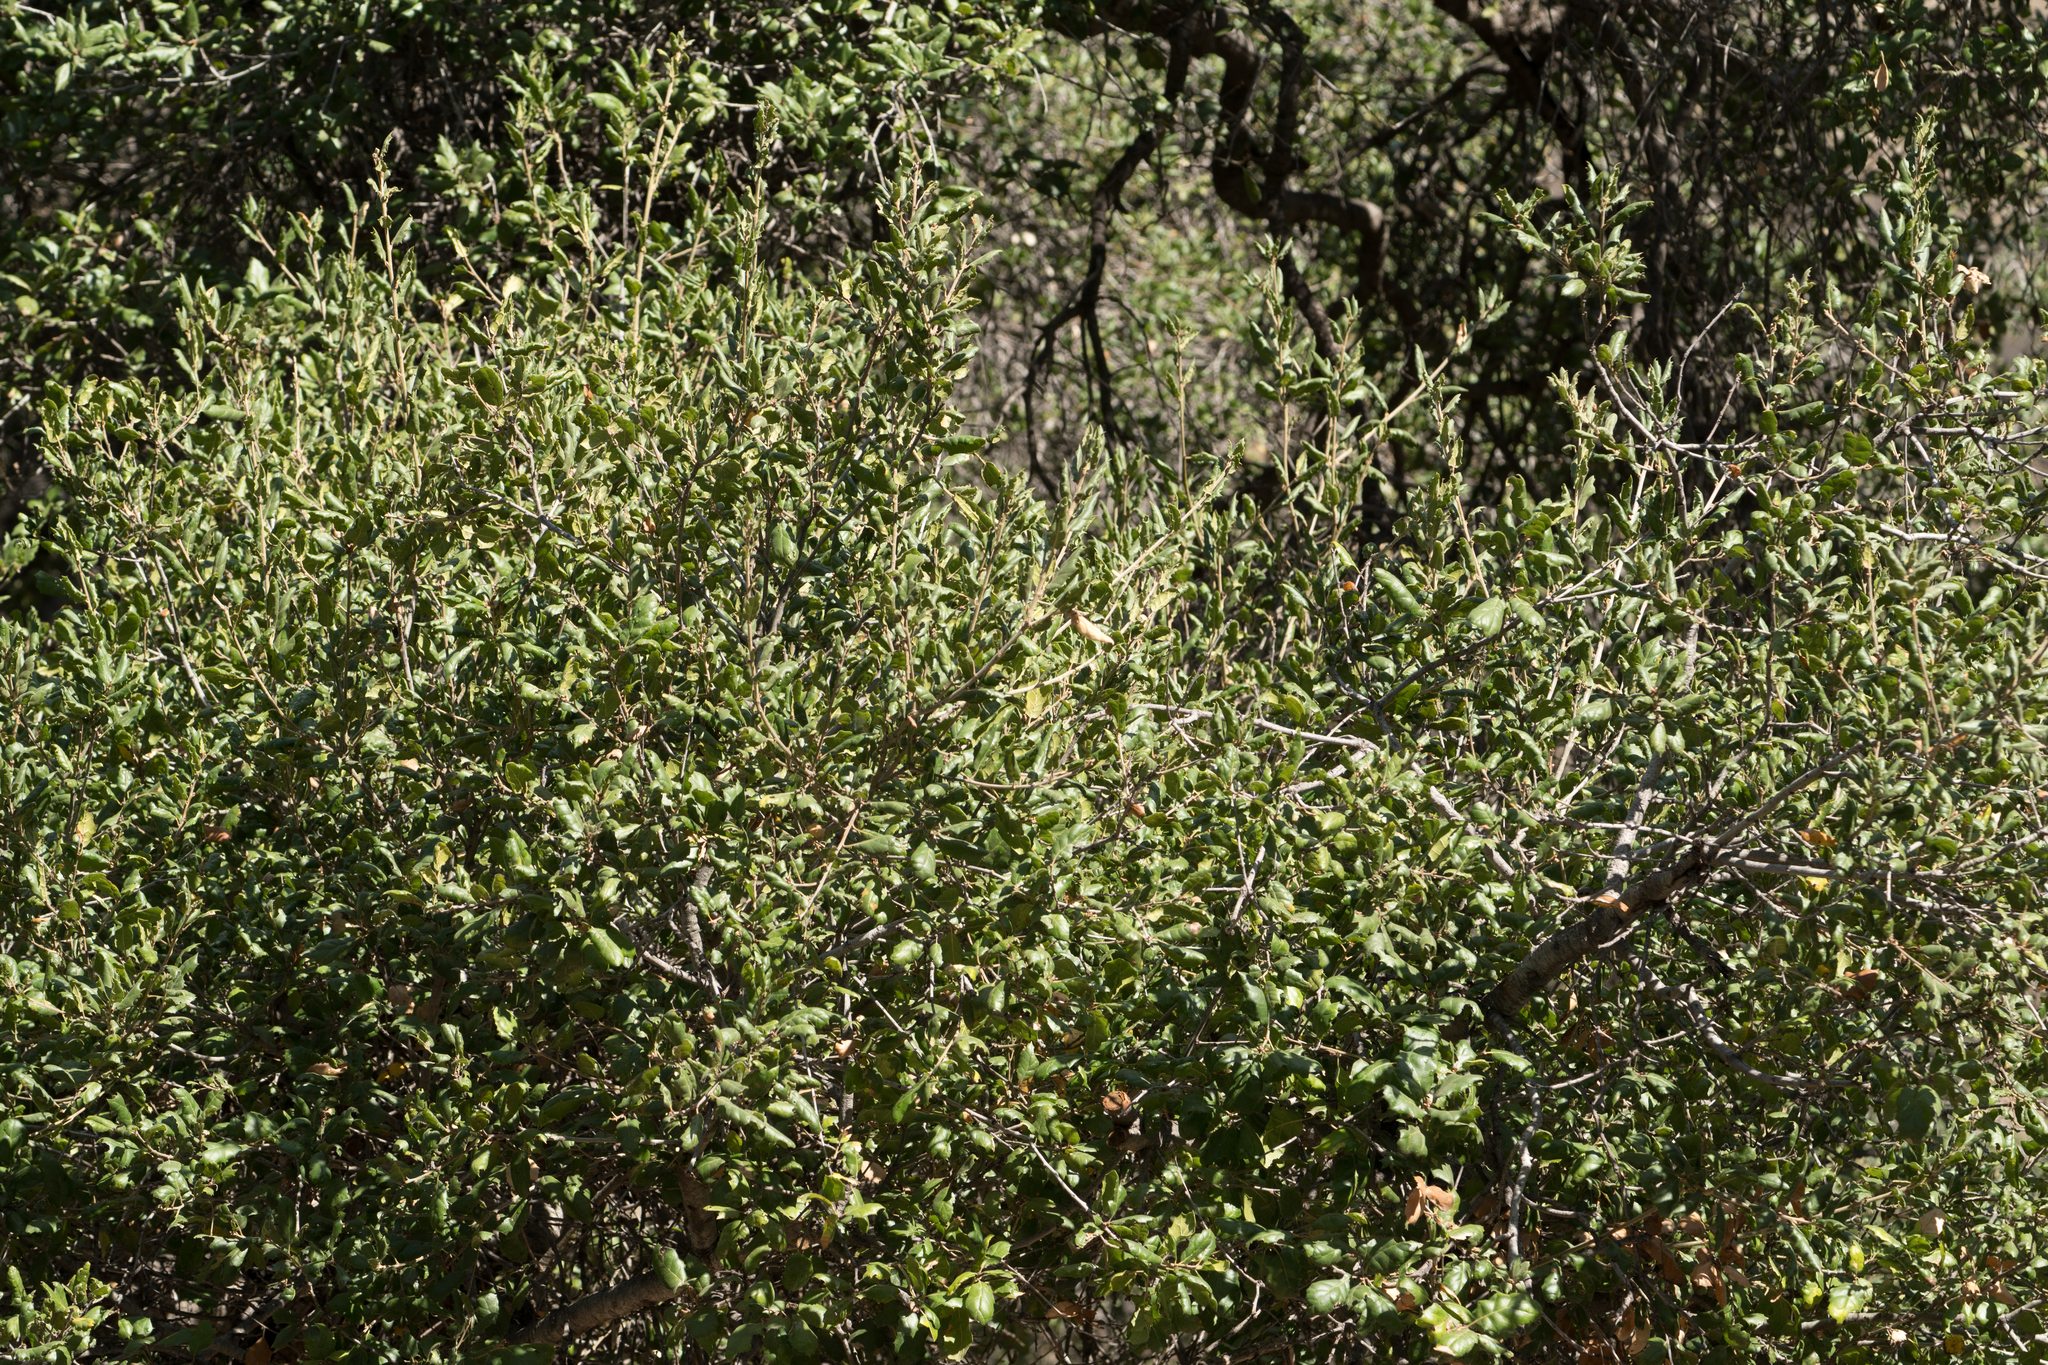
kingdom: Plantae
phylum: Tracheophyta
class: Magnoliopsida
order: Fagales
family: Fagaceae
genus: Quercus
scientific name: Quercus agrifolia
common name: California live oak
